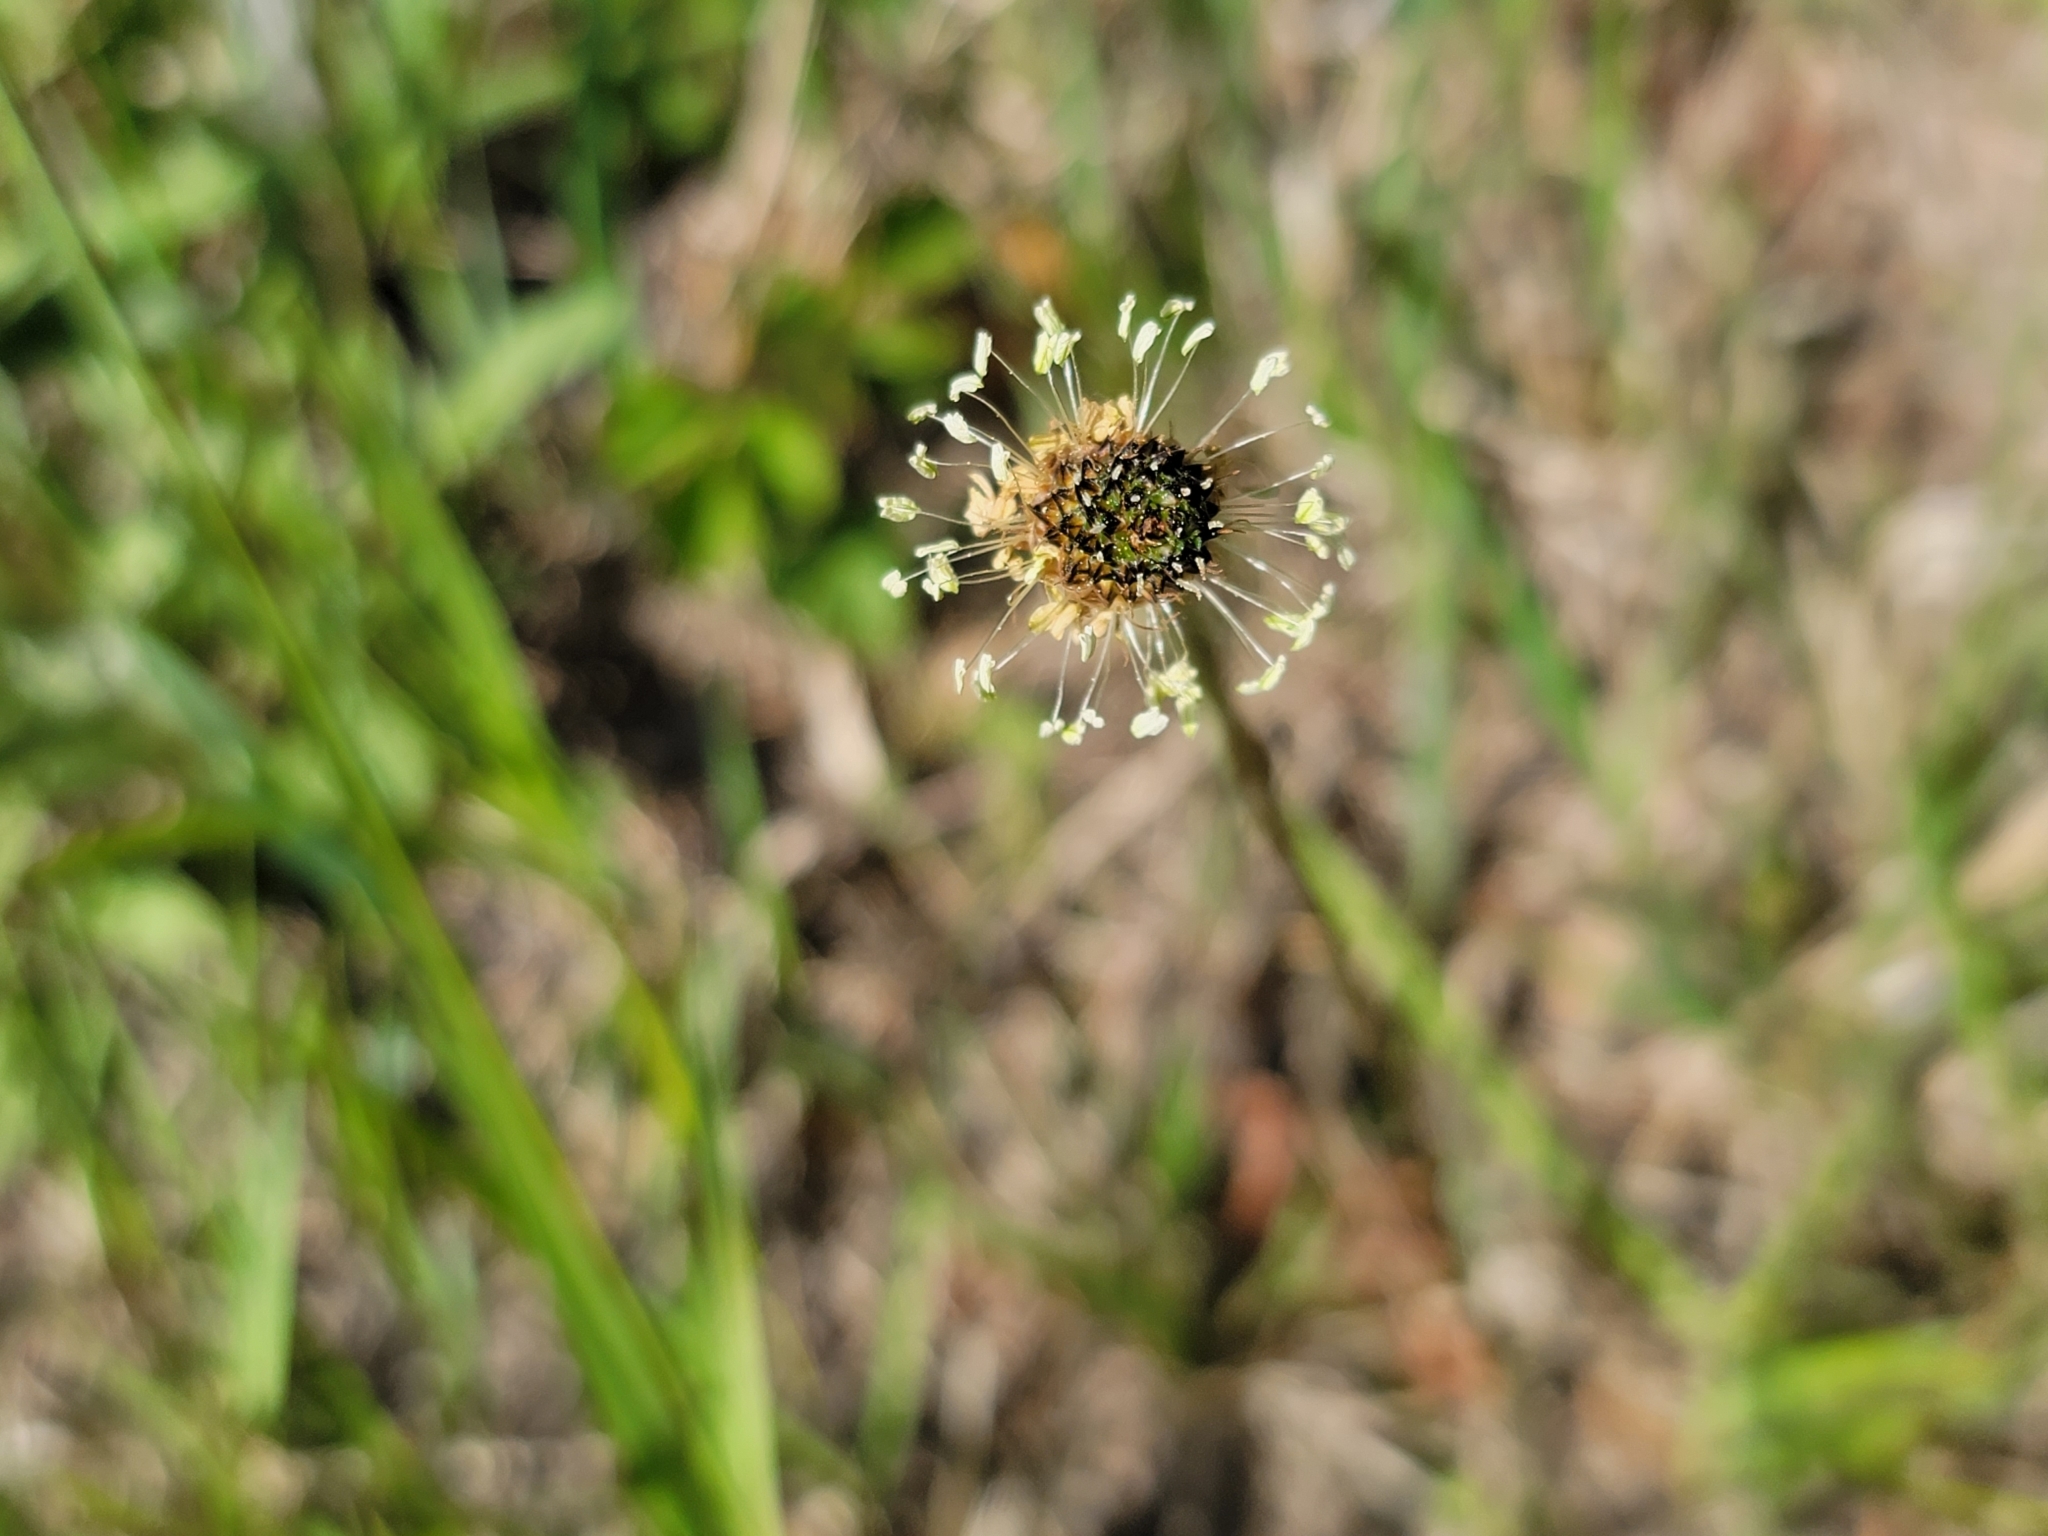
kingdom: Plantae
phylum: Tracheophyta
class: Magnoliopsida
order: Lamiales
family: Plantaginaceae
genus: Plantago
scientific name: Plantago lanceolata
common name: Ribwort plantain
